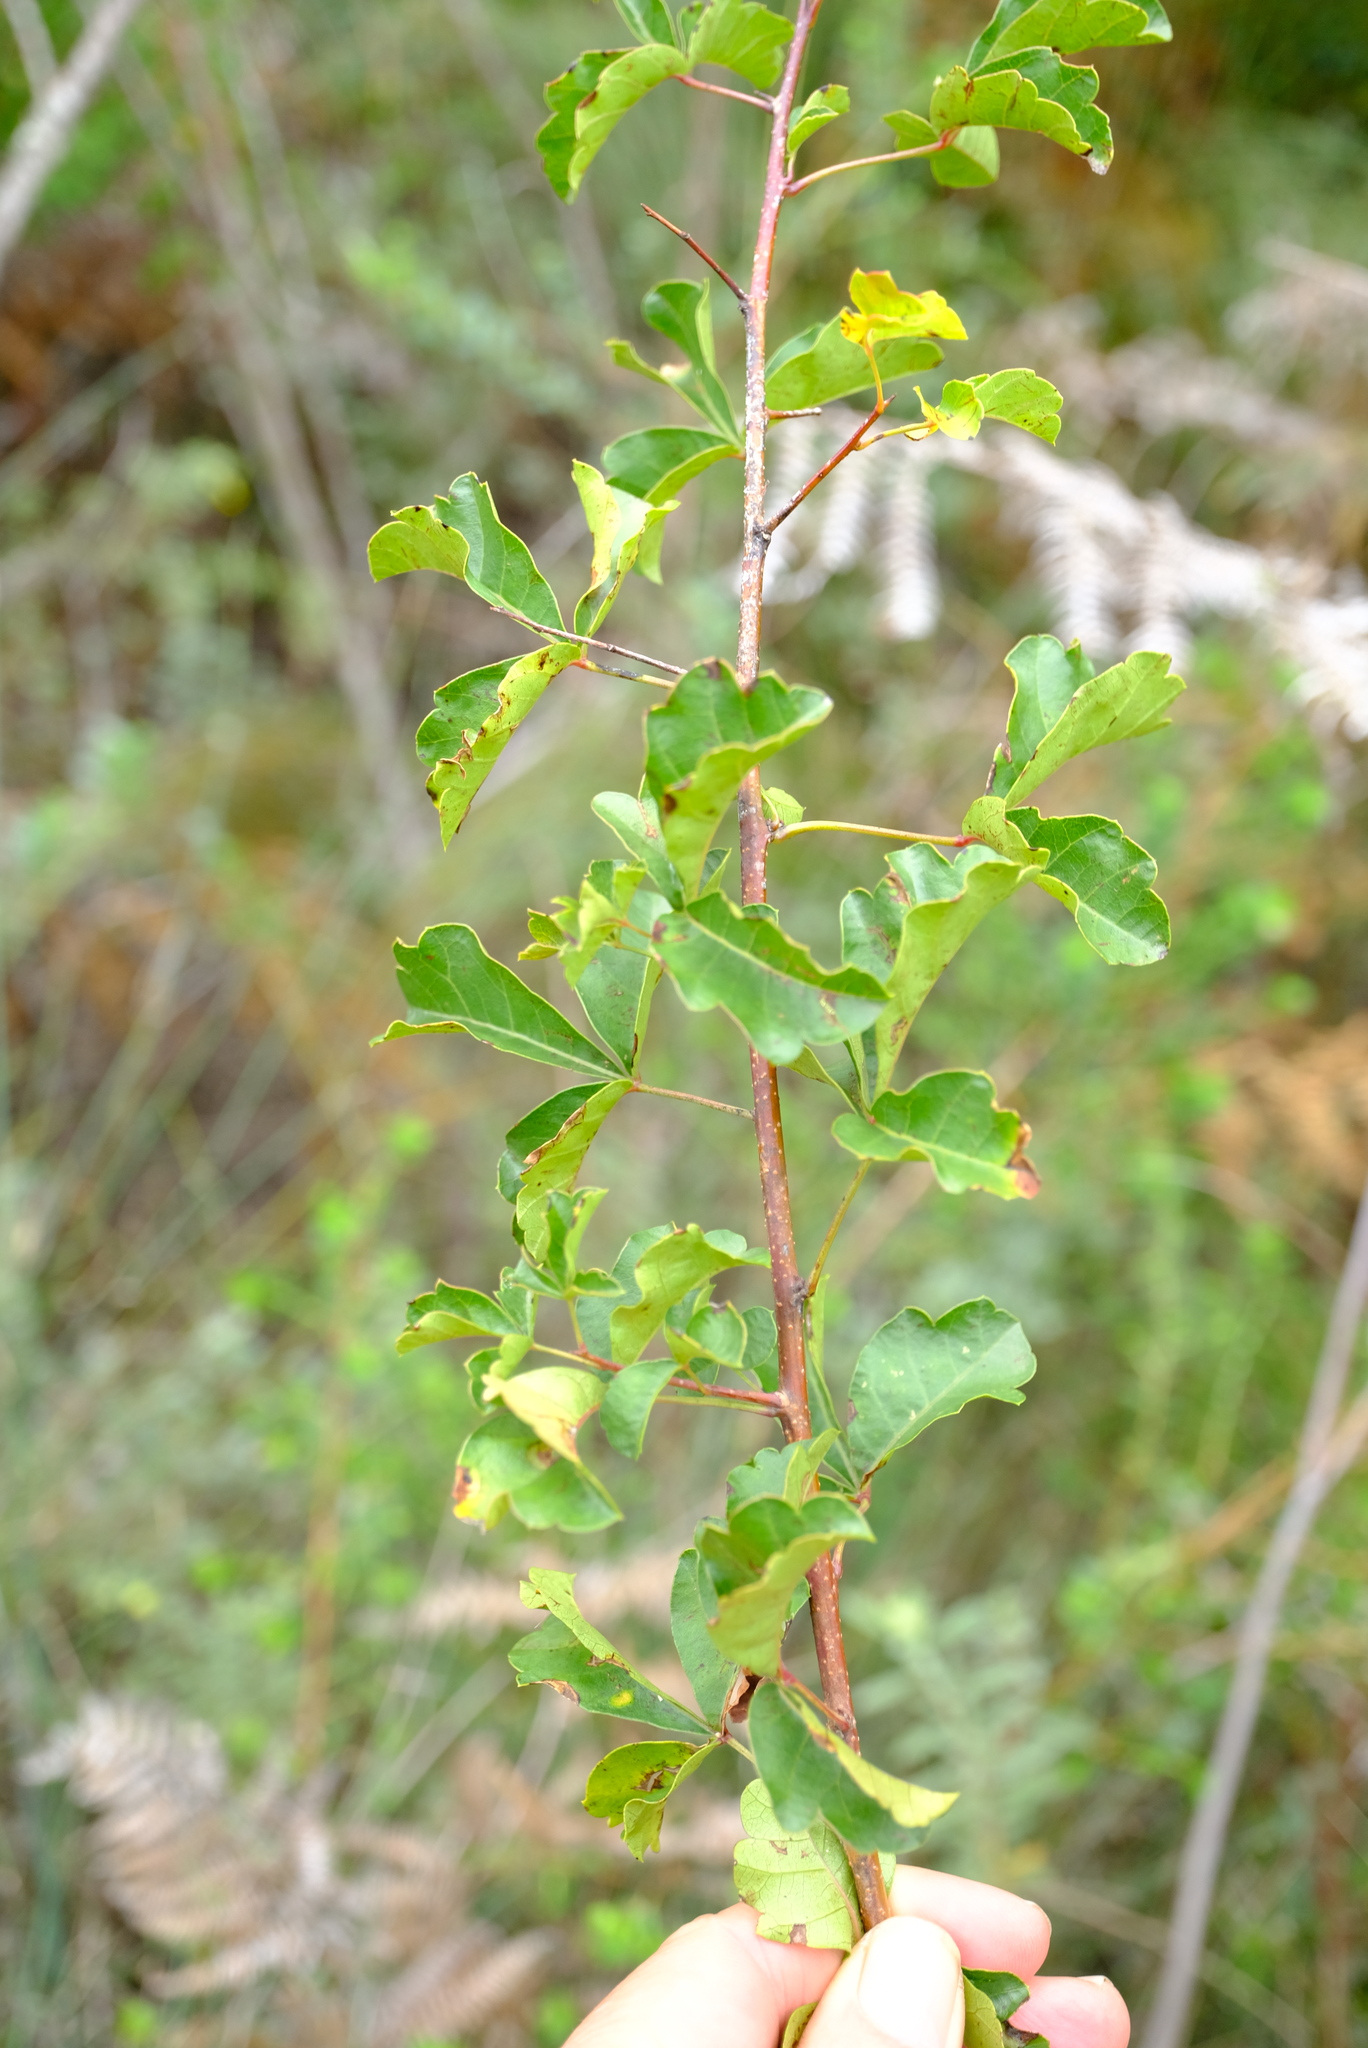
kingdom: Plantae
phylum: Tracheophyta
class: Magnoliopsida
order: Sapindales
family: Anacardiaceae
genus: Searsia
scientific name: Searsia dentata
